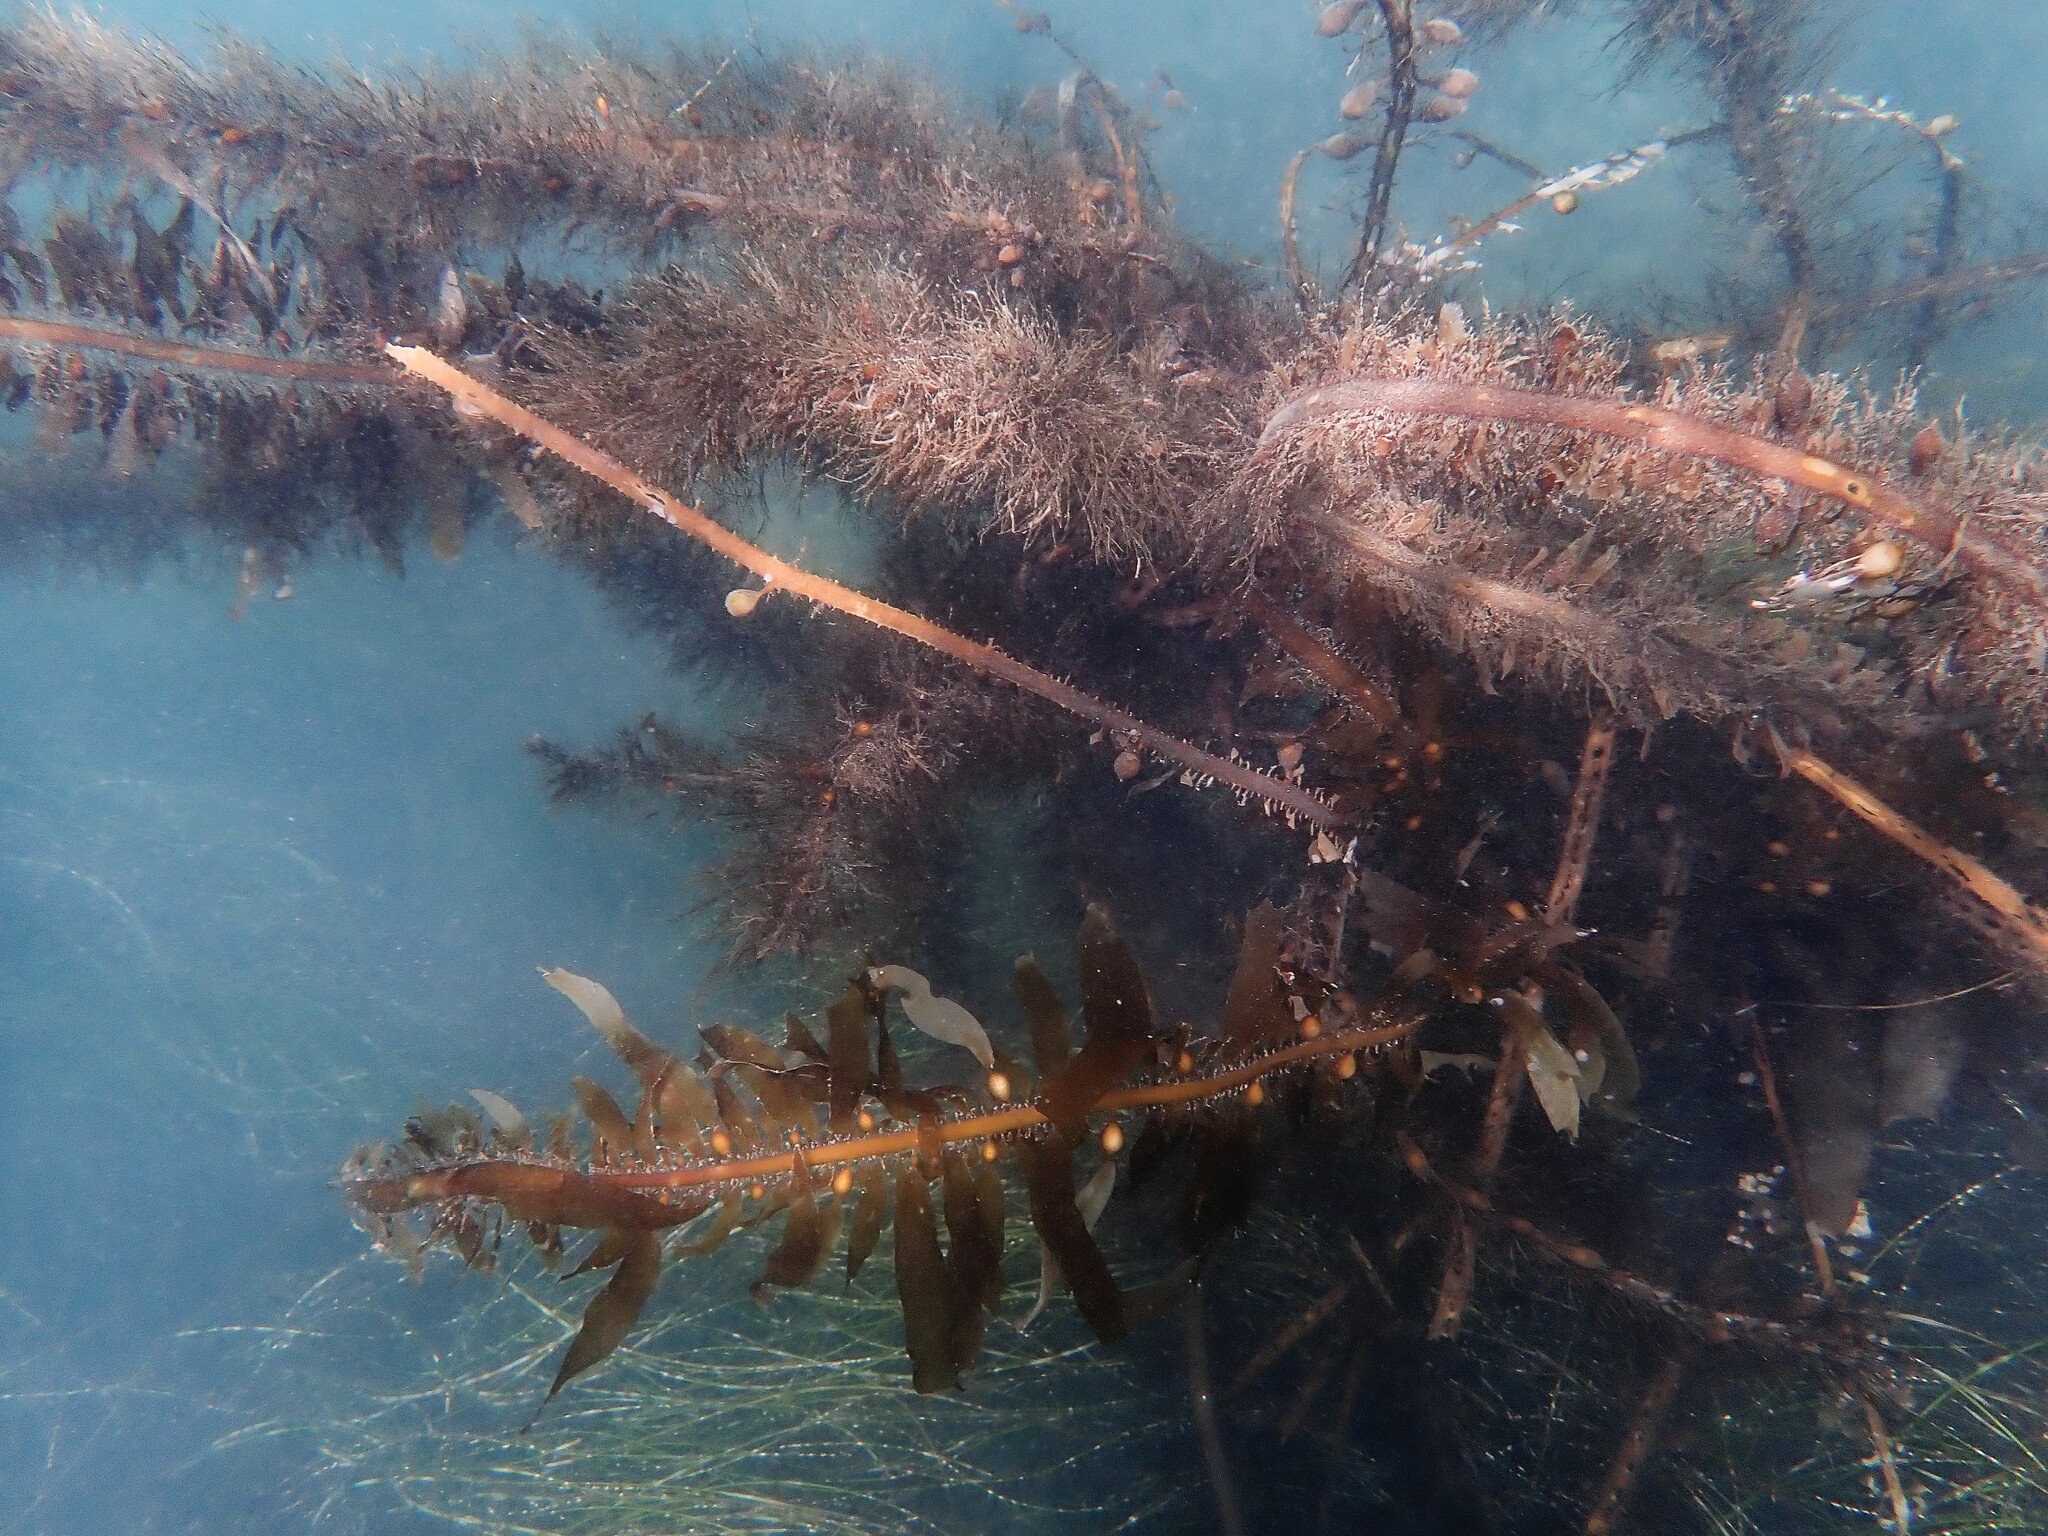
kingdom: Chromista
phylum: Ochrophyta
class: Phaeophyceae
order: Laminariales
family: Lessoniaceae
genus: Egregia
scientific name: Egregia menziesii
